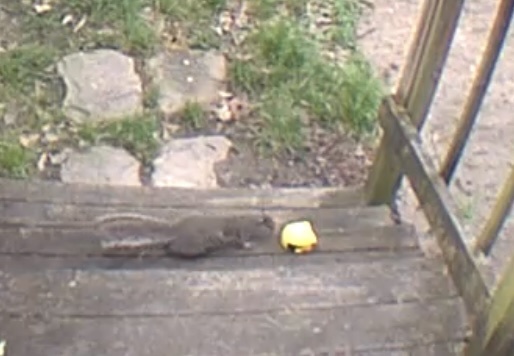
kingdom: Animalia
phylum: Chordata
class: Mammalia
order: Rodentia
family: Sciuridae
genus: Sciurus
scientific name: Sciurus carolinensis
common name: Eastern gray squirrel
